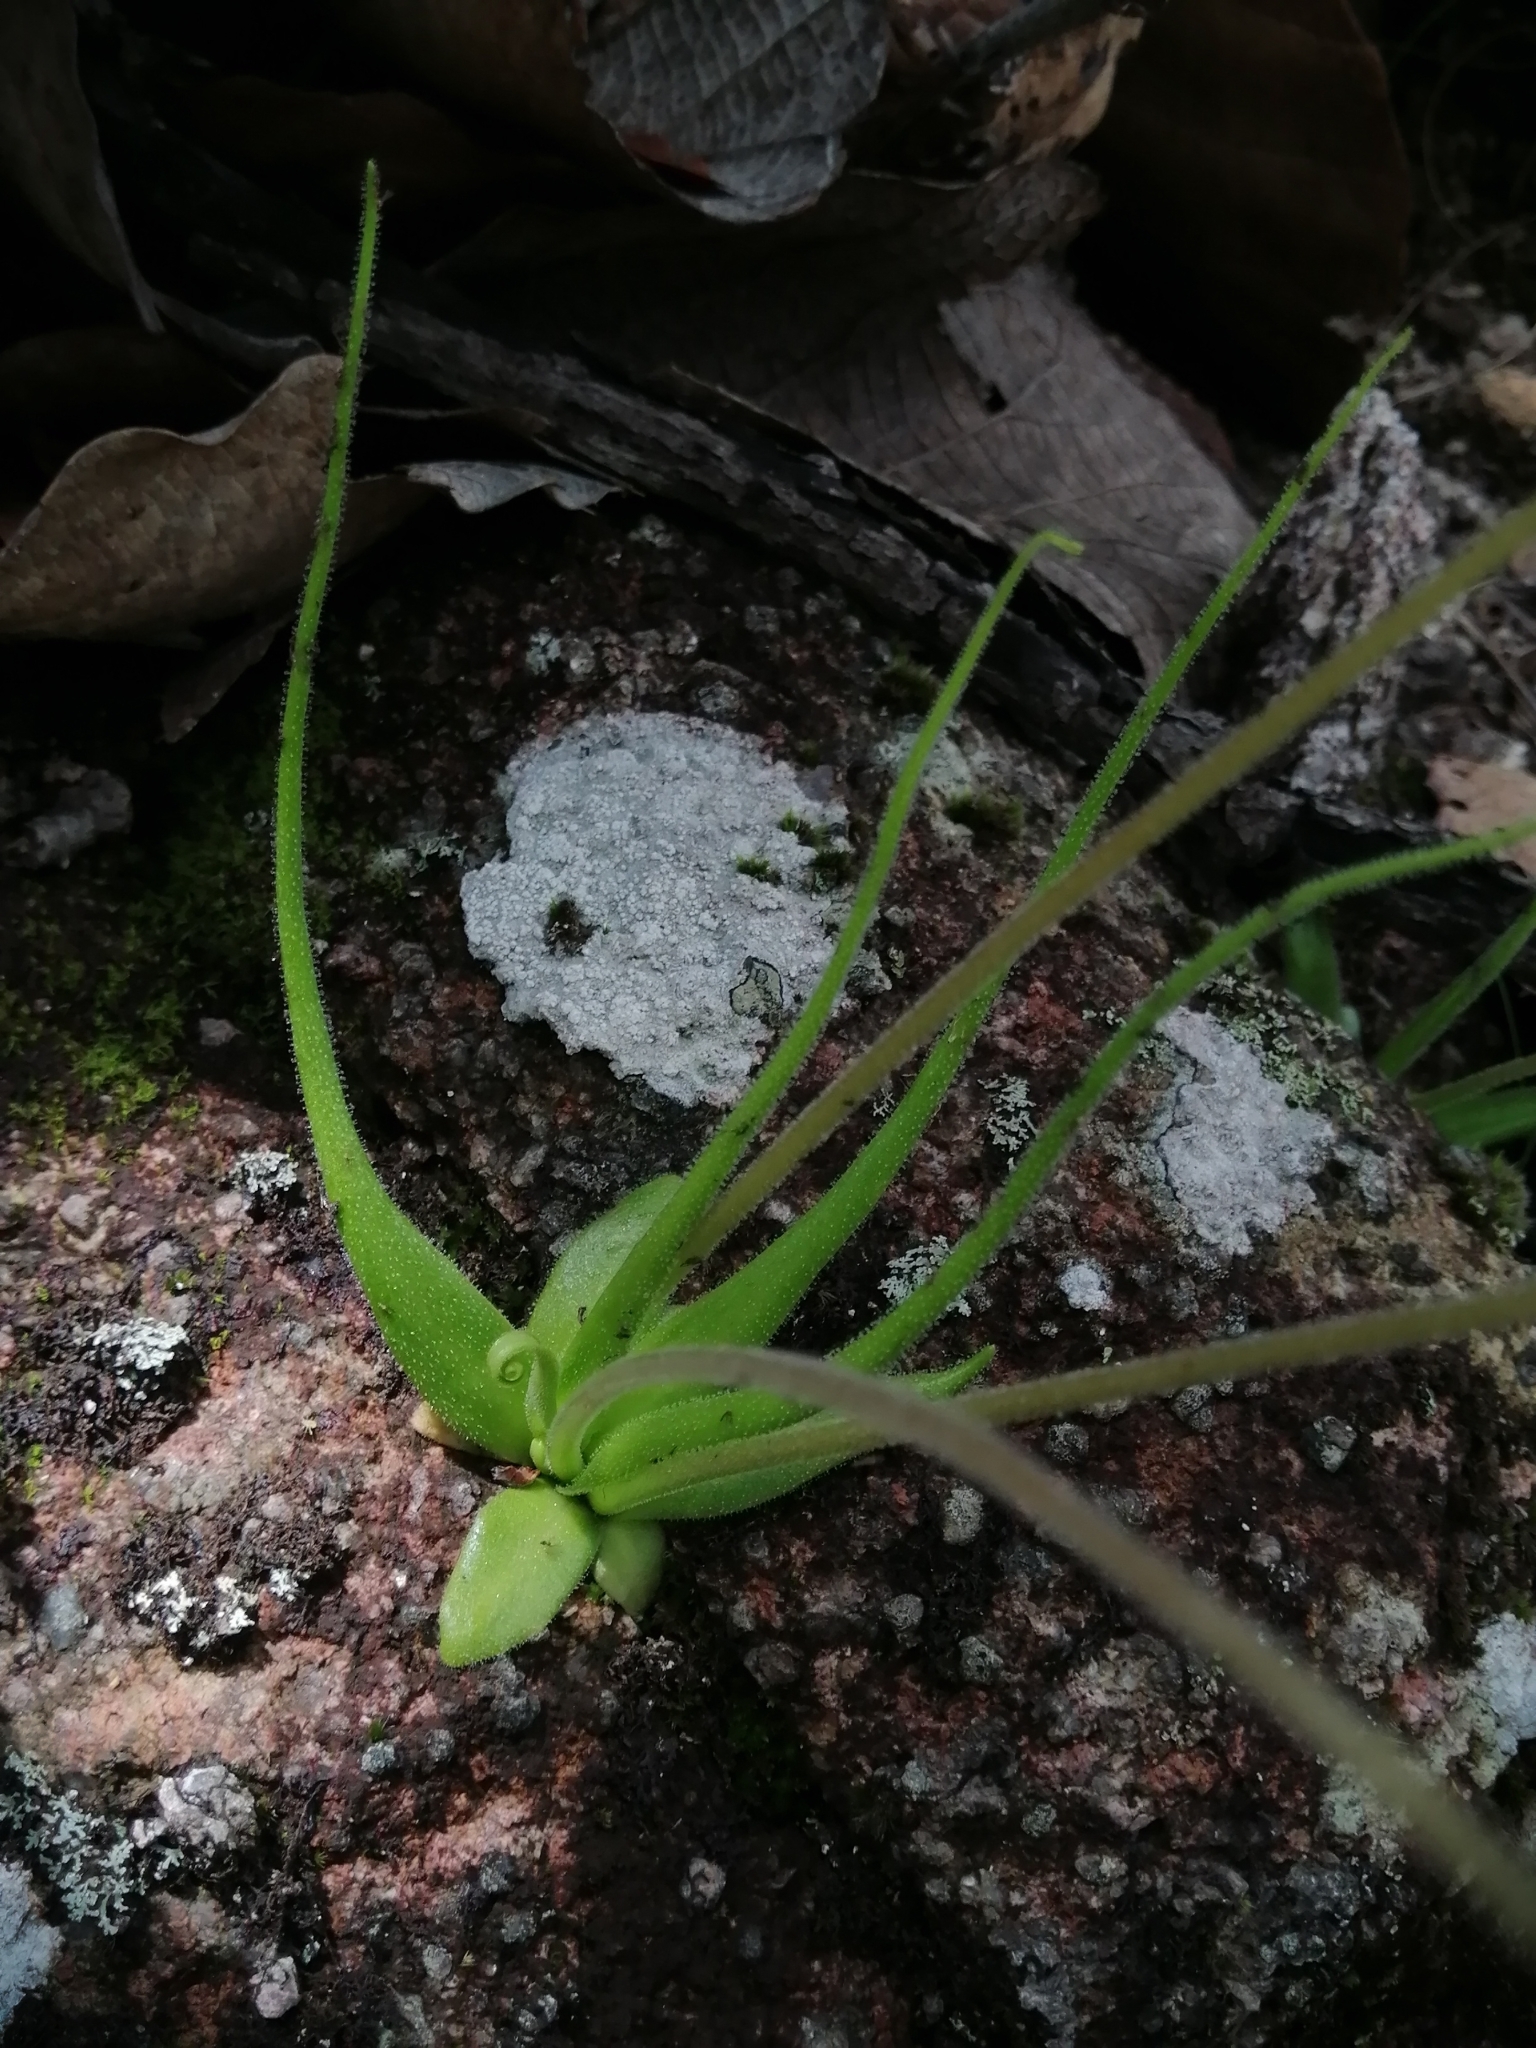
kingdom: Plantae
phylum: Tracheophyta
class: Magnoliopsida
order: Lamiales
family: Lentibulariaceae
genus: Pinguicula
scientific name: Pinguicula heterophylla
